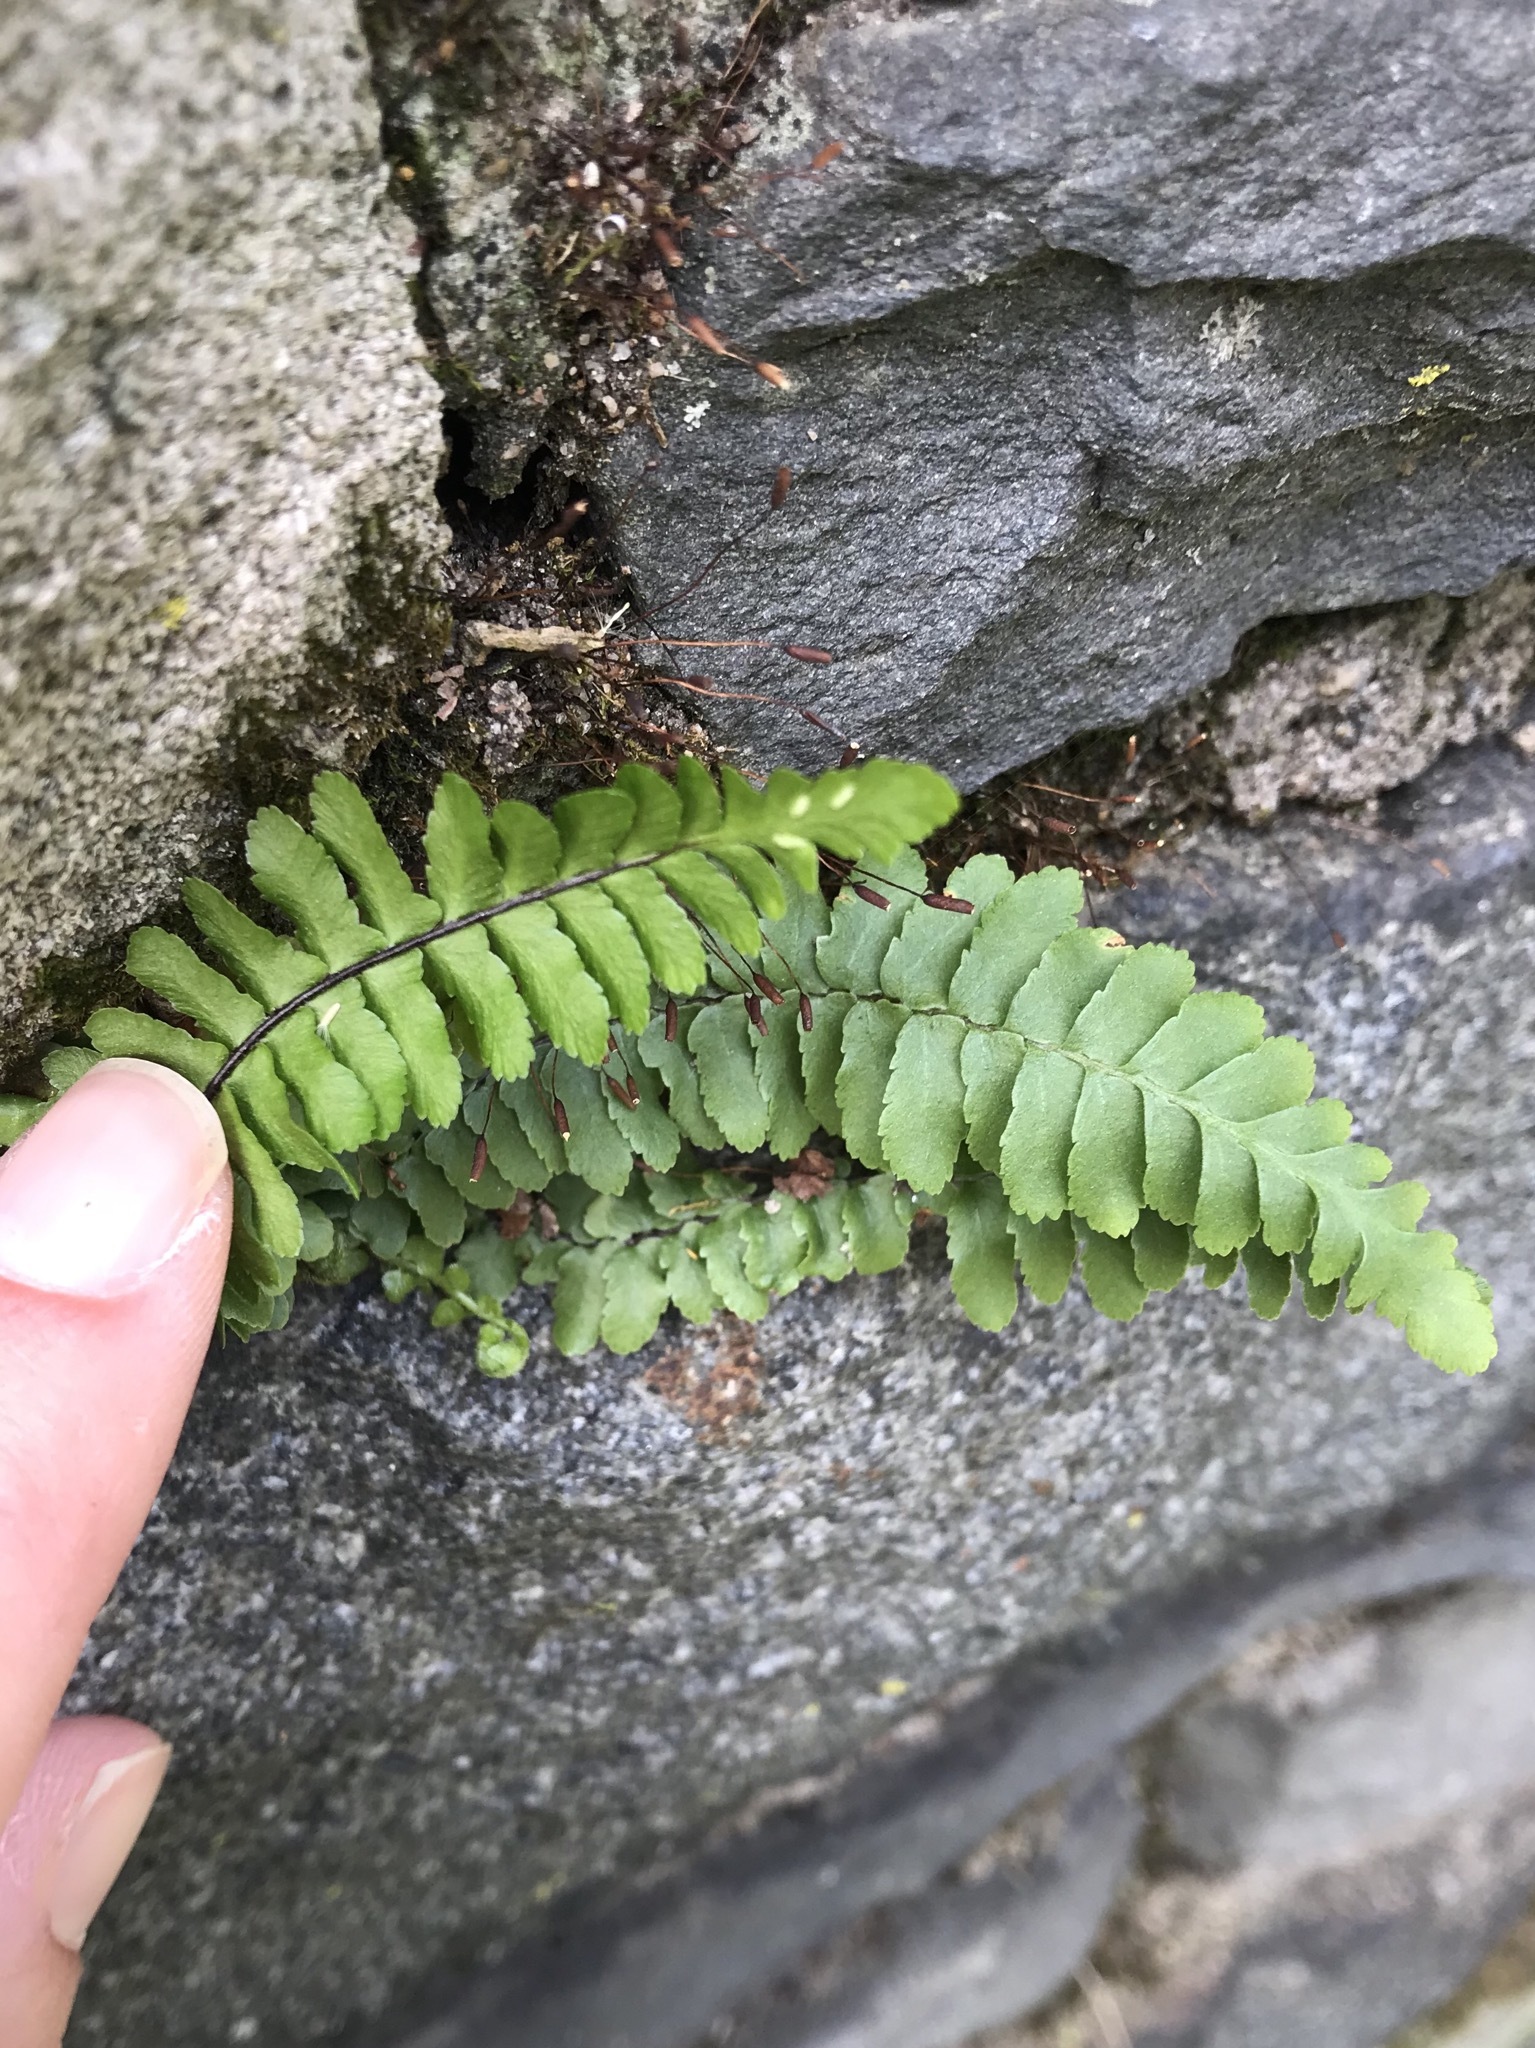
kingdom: Plantae
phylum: Tracheophyta
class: Polypodiopsida
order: Polypodiales
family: Aspleniaceae
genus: Asplenium
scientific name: Asplenium platyneuron
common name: Ebony spleenwort
